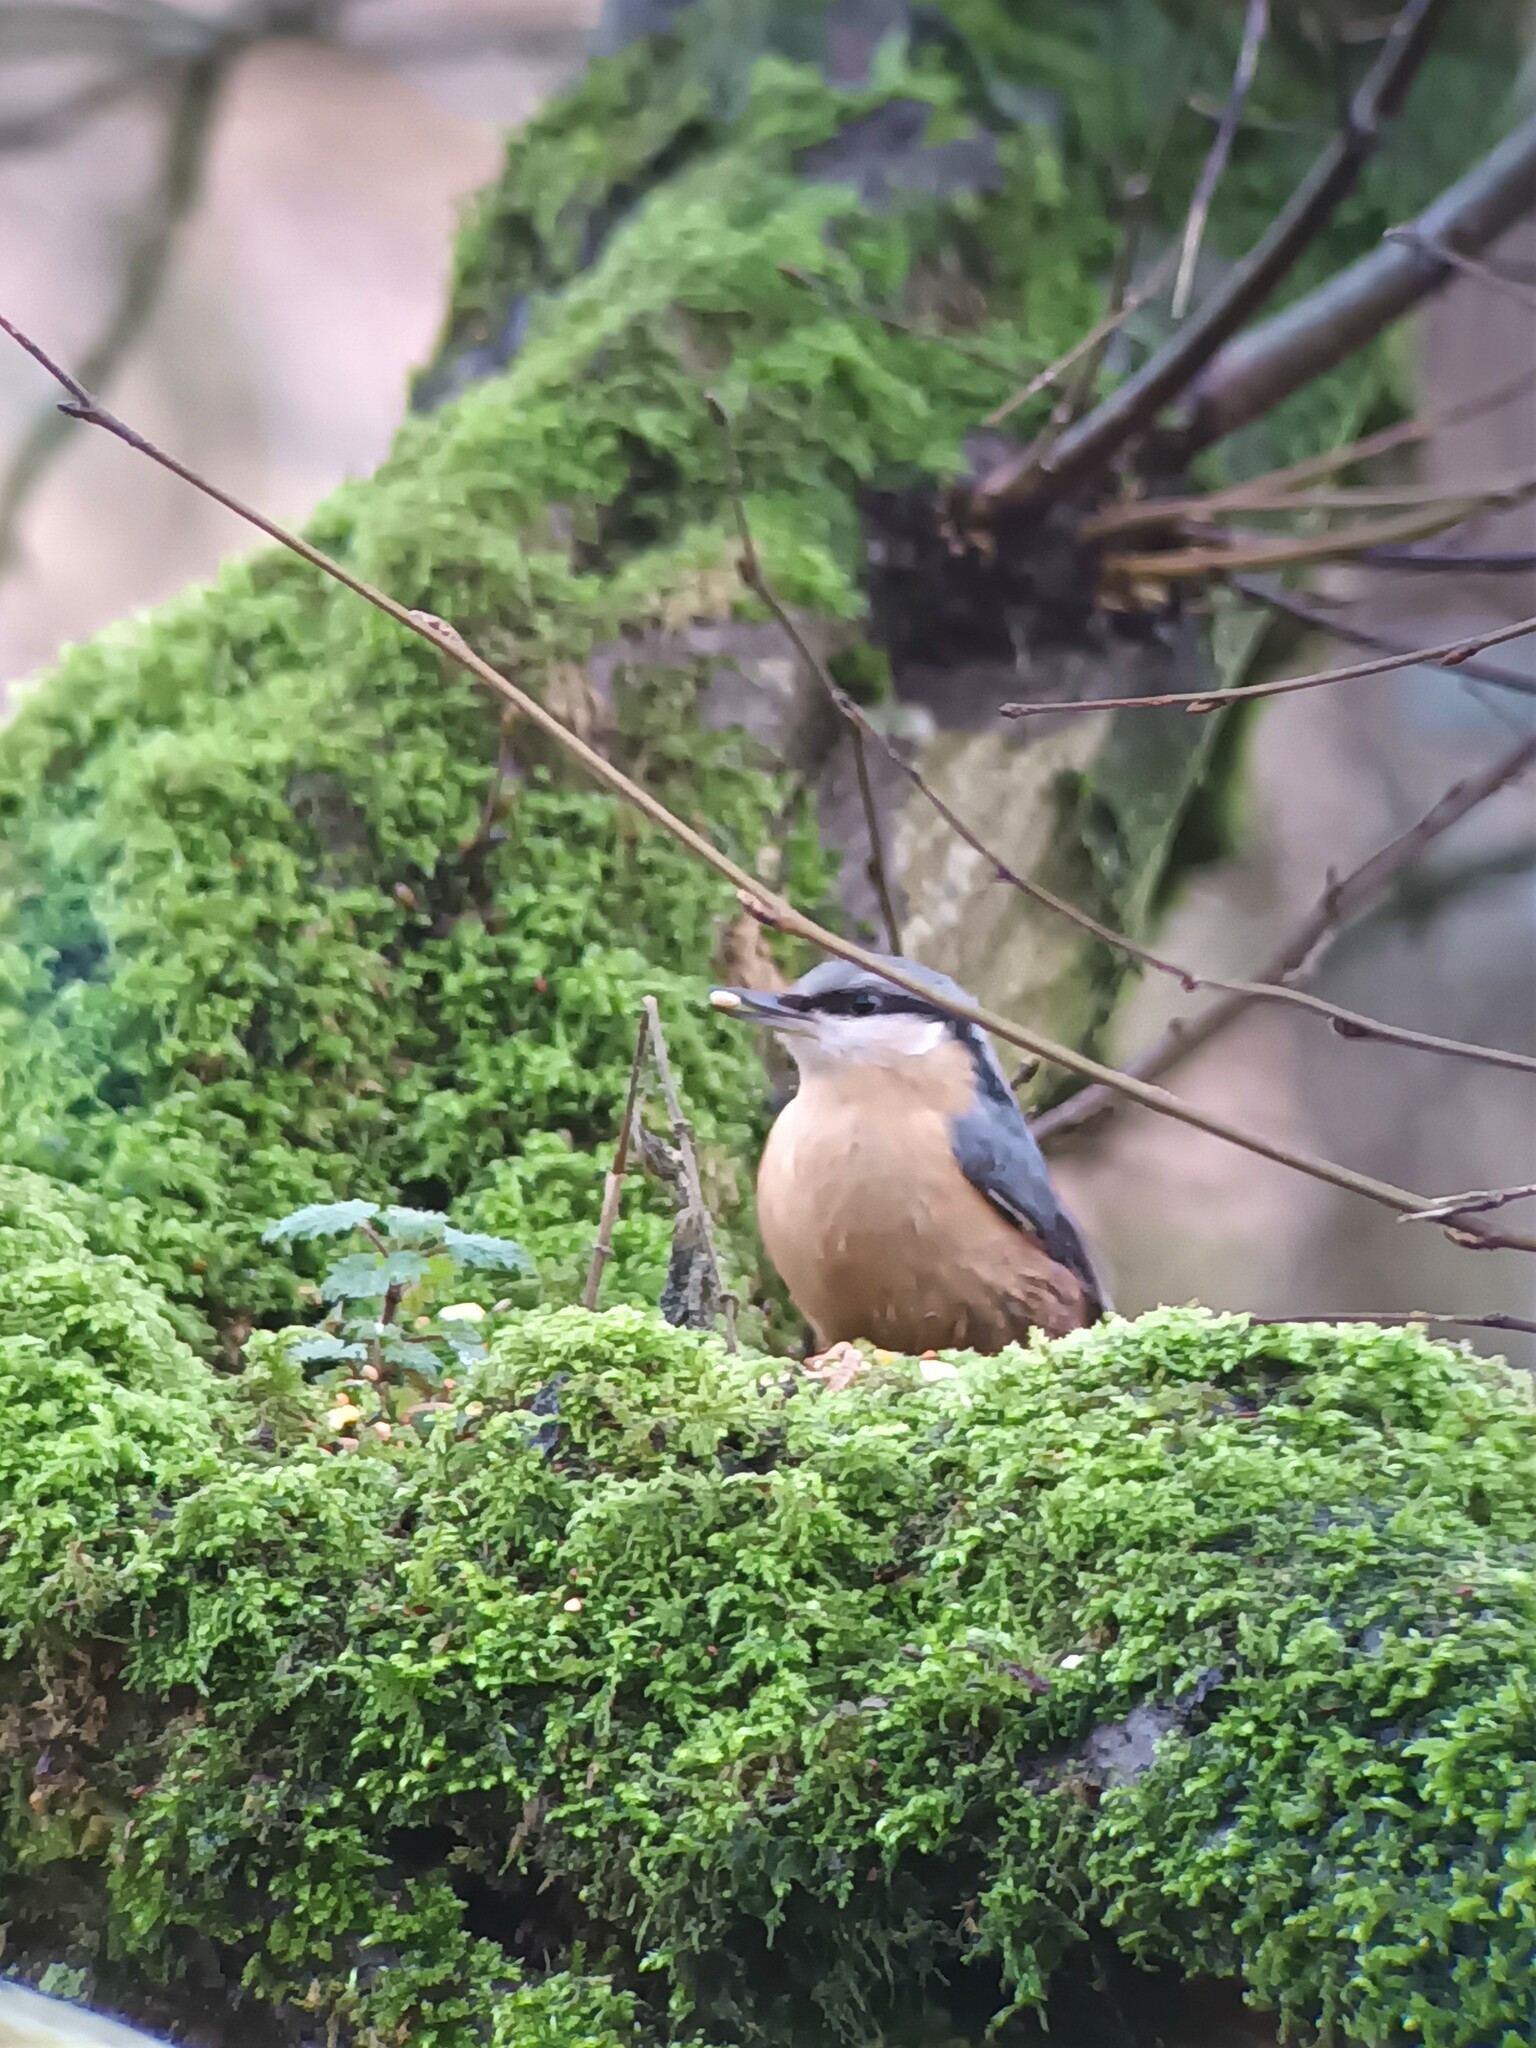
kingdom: Animalia
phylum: Chordata
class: Aves
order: Passeriformes
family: Sittidae
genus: Sitta
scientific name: Sitta europaea
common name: Eurasian nuthatch
